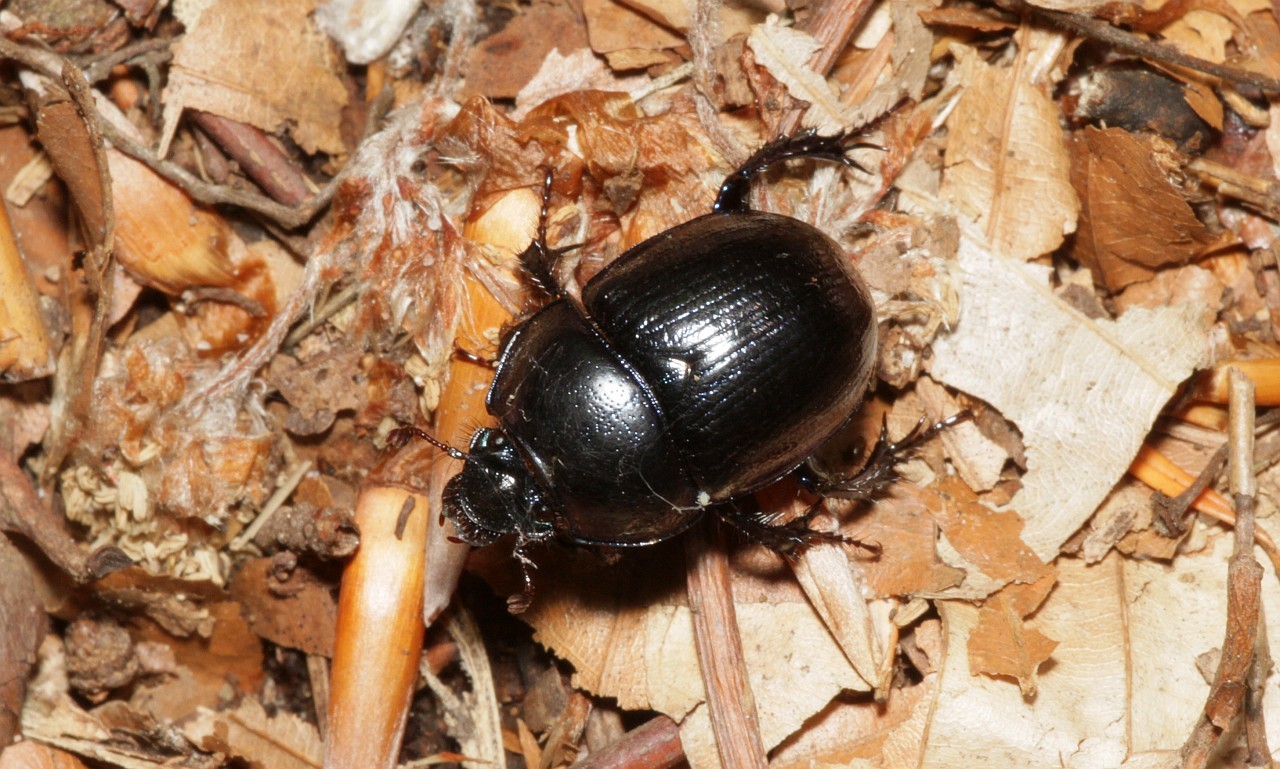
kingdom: Animalia
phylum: Arthropoda
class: Insecta
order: Coleoptera
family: Geotrupidae
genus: Anoplotrupes
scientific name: Anoplotrupes stercorosus
